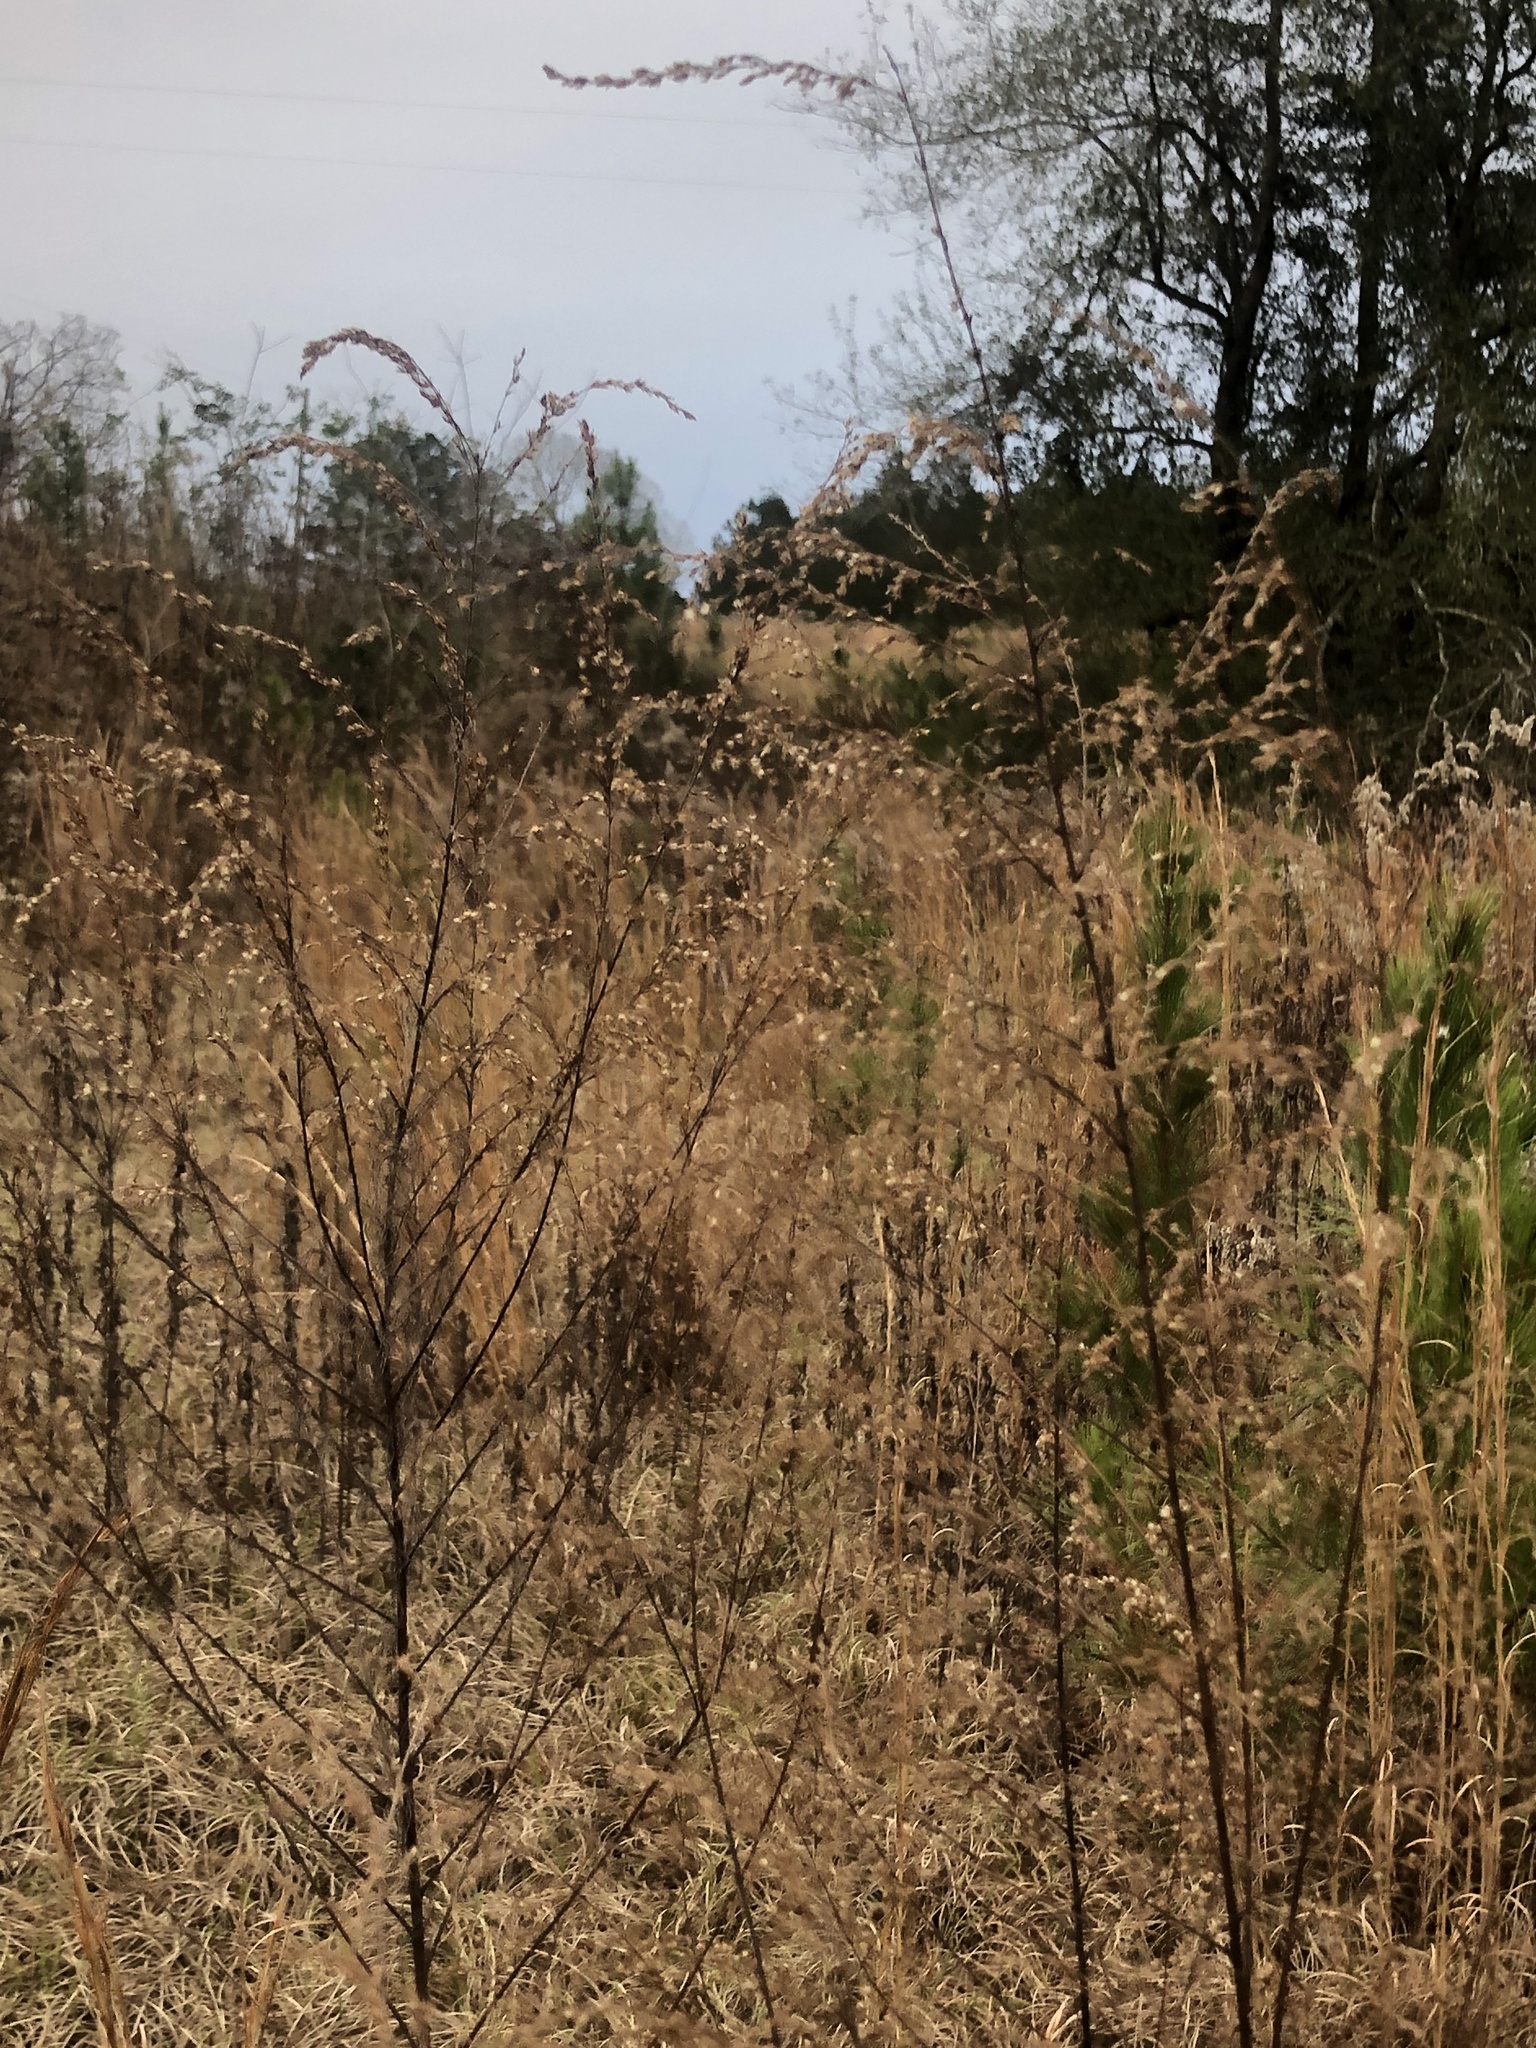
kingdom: Plantae
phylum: Tracheophyta
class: Magnoliopsida
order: Asterales
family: Asteraceae
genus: Eupatorium
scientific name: Eupatorium capillifolium
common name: Dog-fennel
